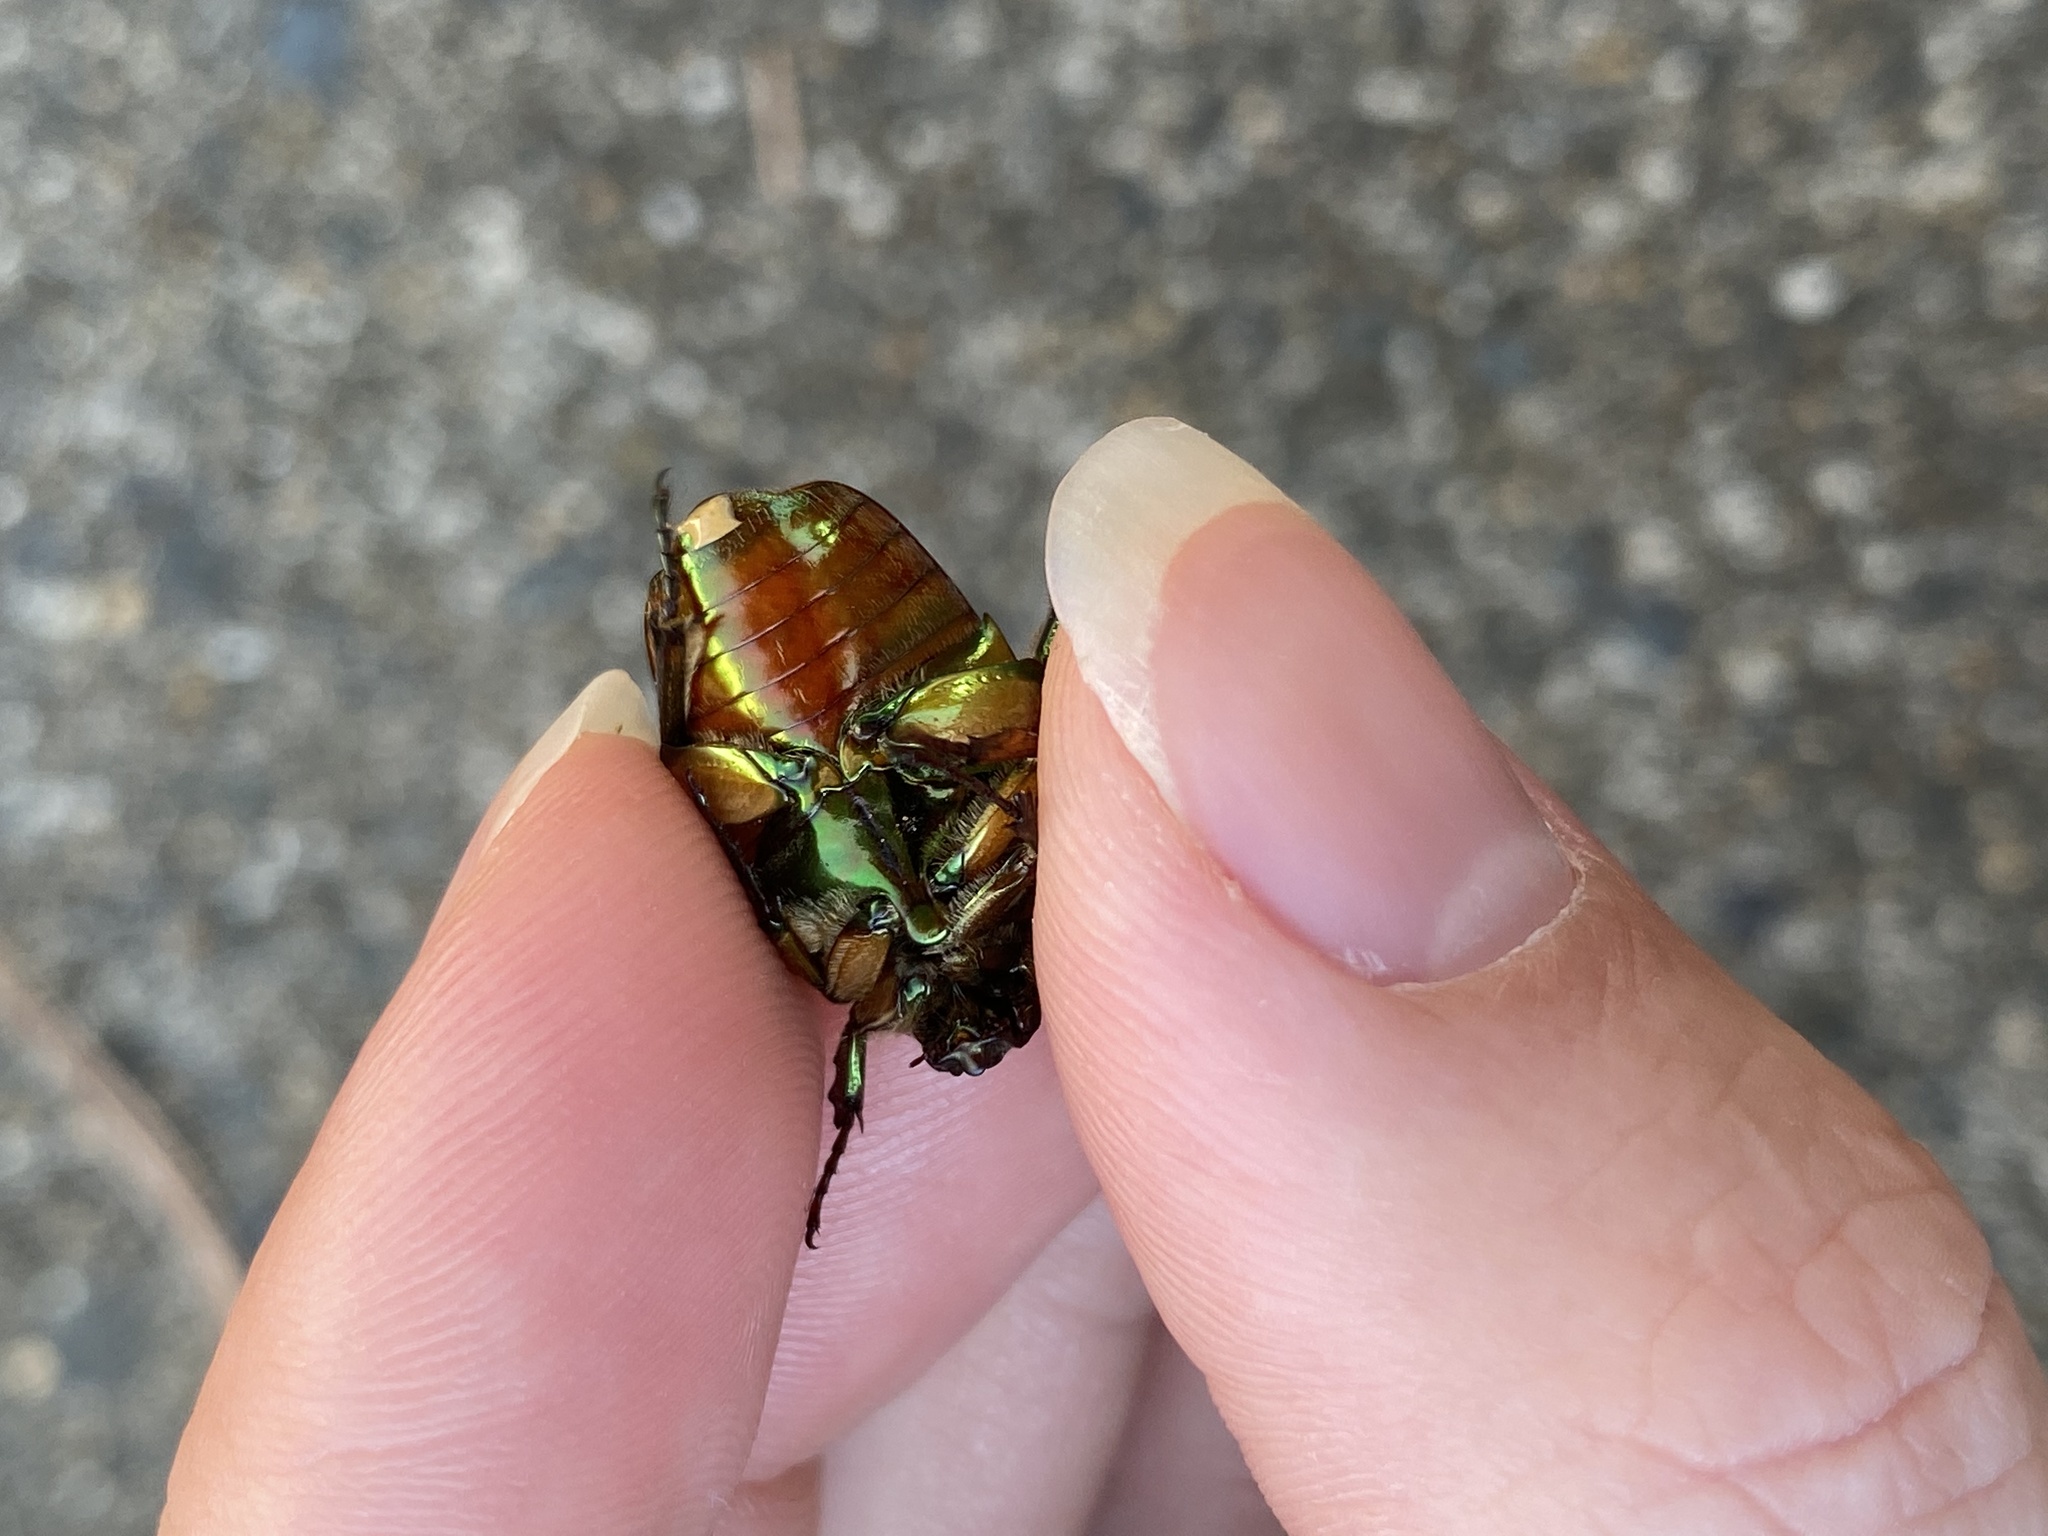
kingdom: Animalia
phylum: Arthropoda
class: Insecta
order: Coleoptera
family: Scarabaeidae
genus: Cotinis
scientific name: Cotinis nitida
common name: Common green june beetle
